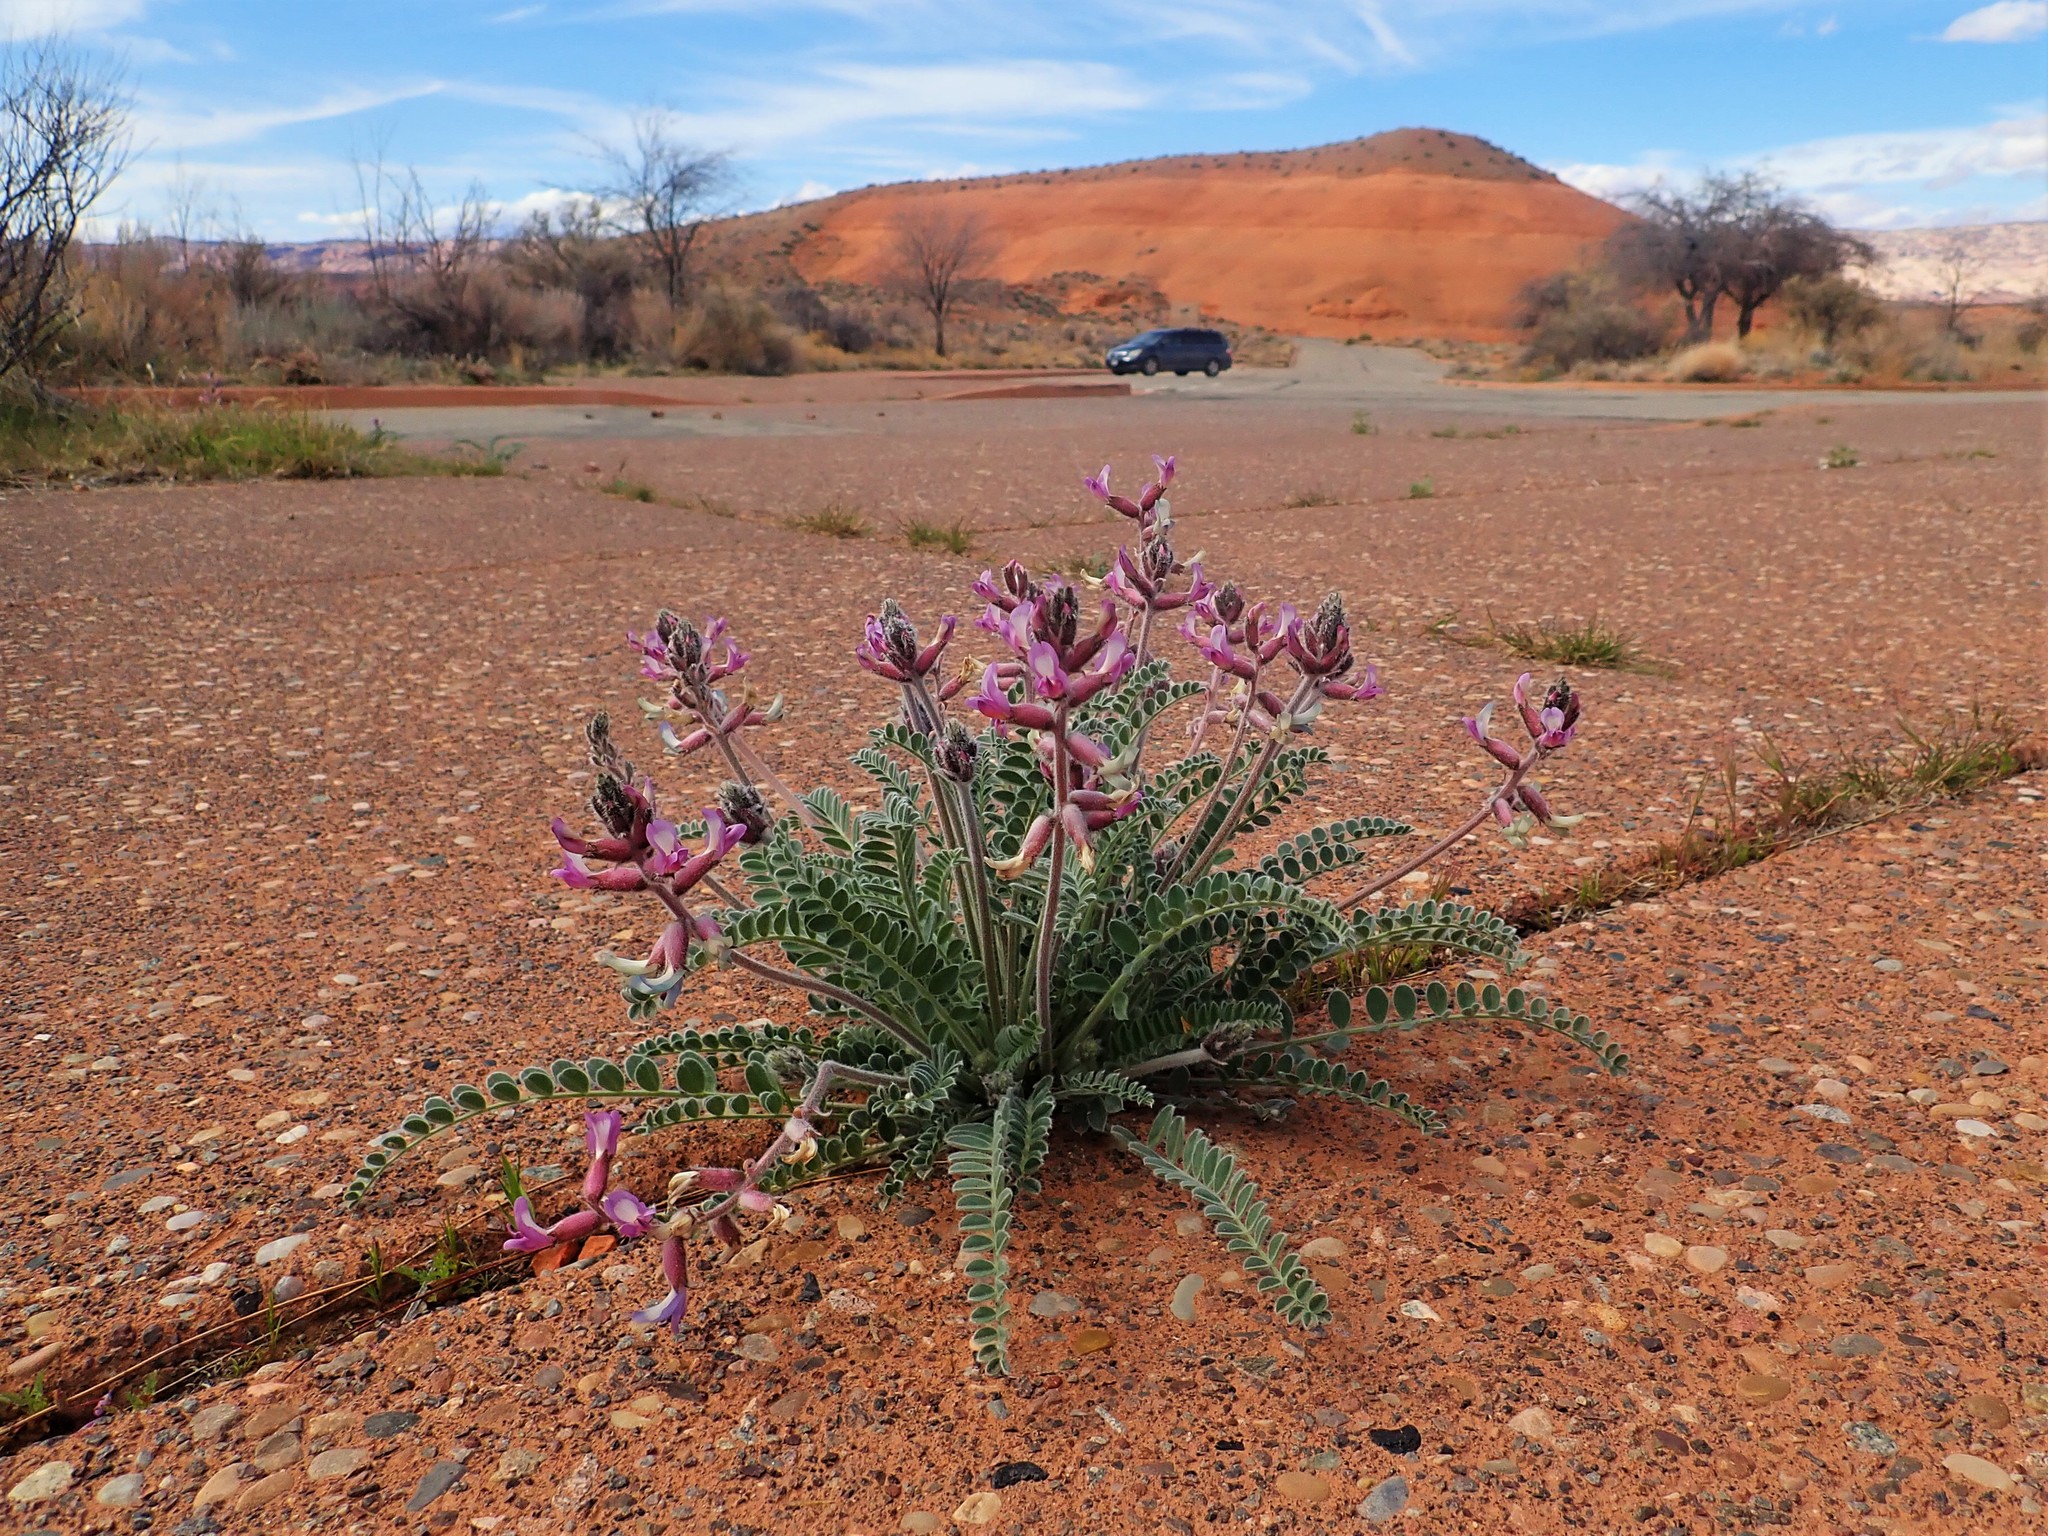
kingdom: Plantae
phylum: Tracheophyta
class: Magnoliopsida
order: Fabales
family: Fabaceae
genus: Astragalus
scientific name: Astragalus mollissimus
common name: Woolly locoweed
